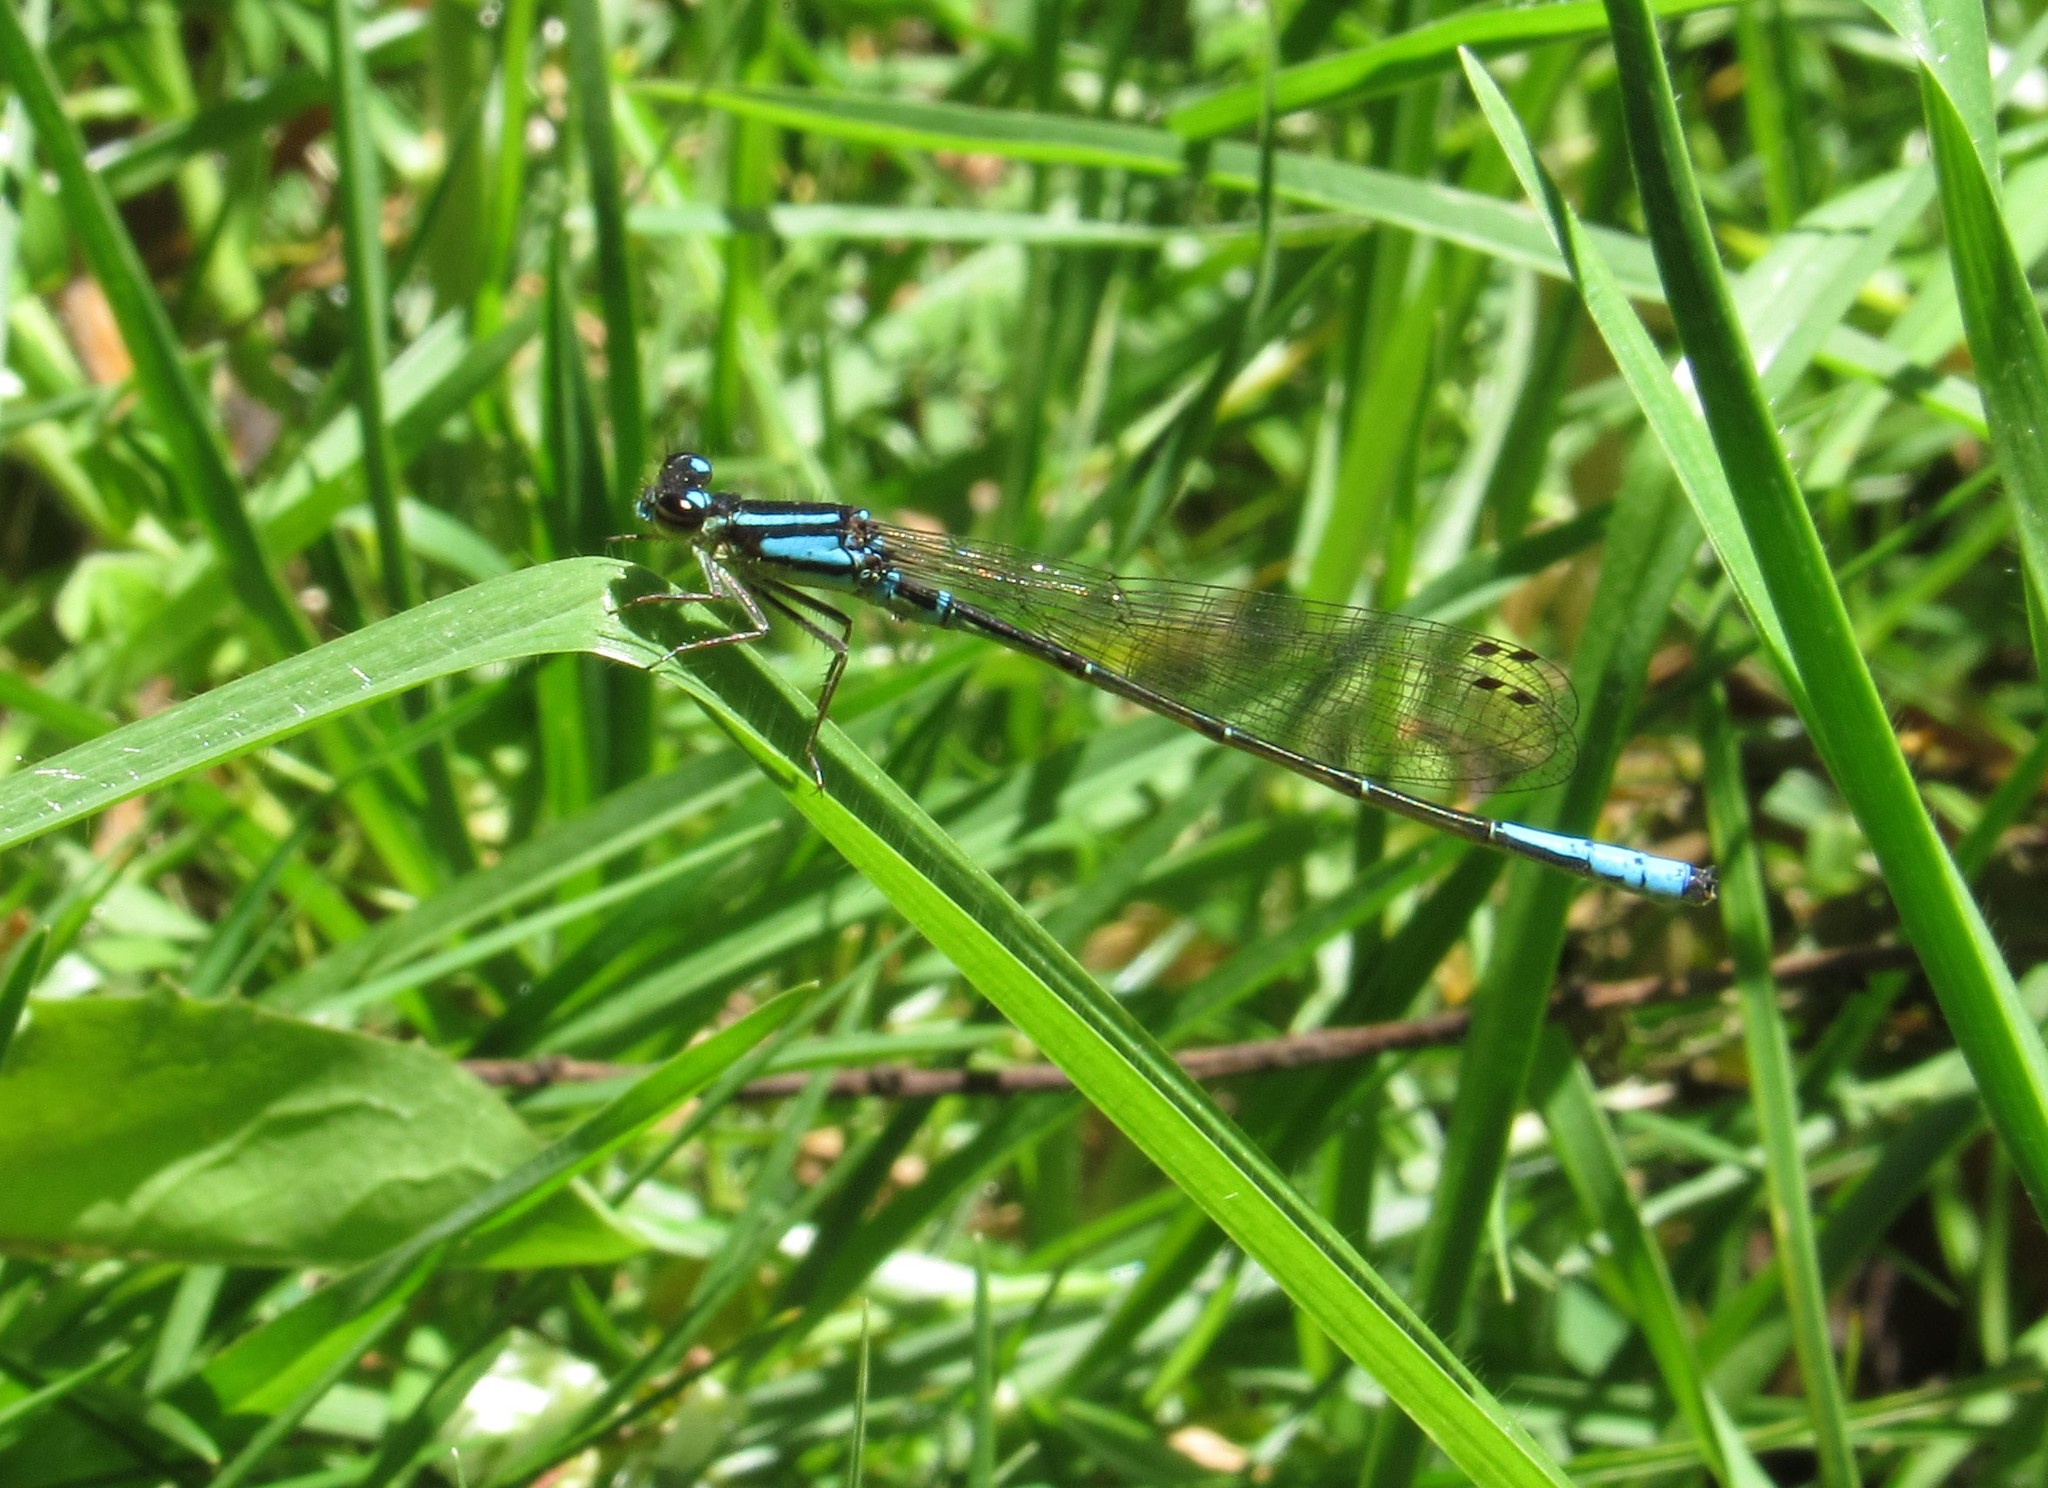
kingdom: Animalia
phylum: Arthropoda
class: Insecta
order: Odonata
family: Coenagrionidae
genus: Mesamphiagrion
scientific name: Mesamphiagrion laterale
